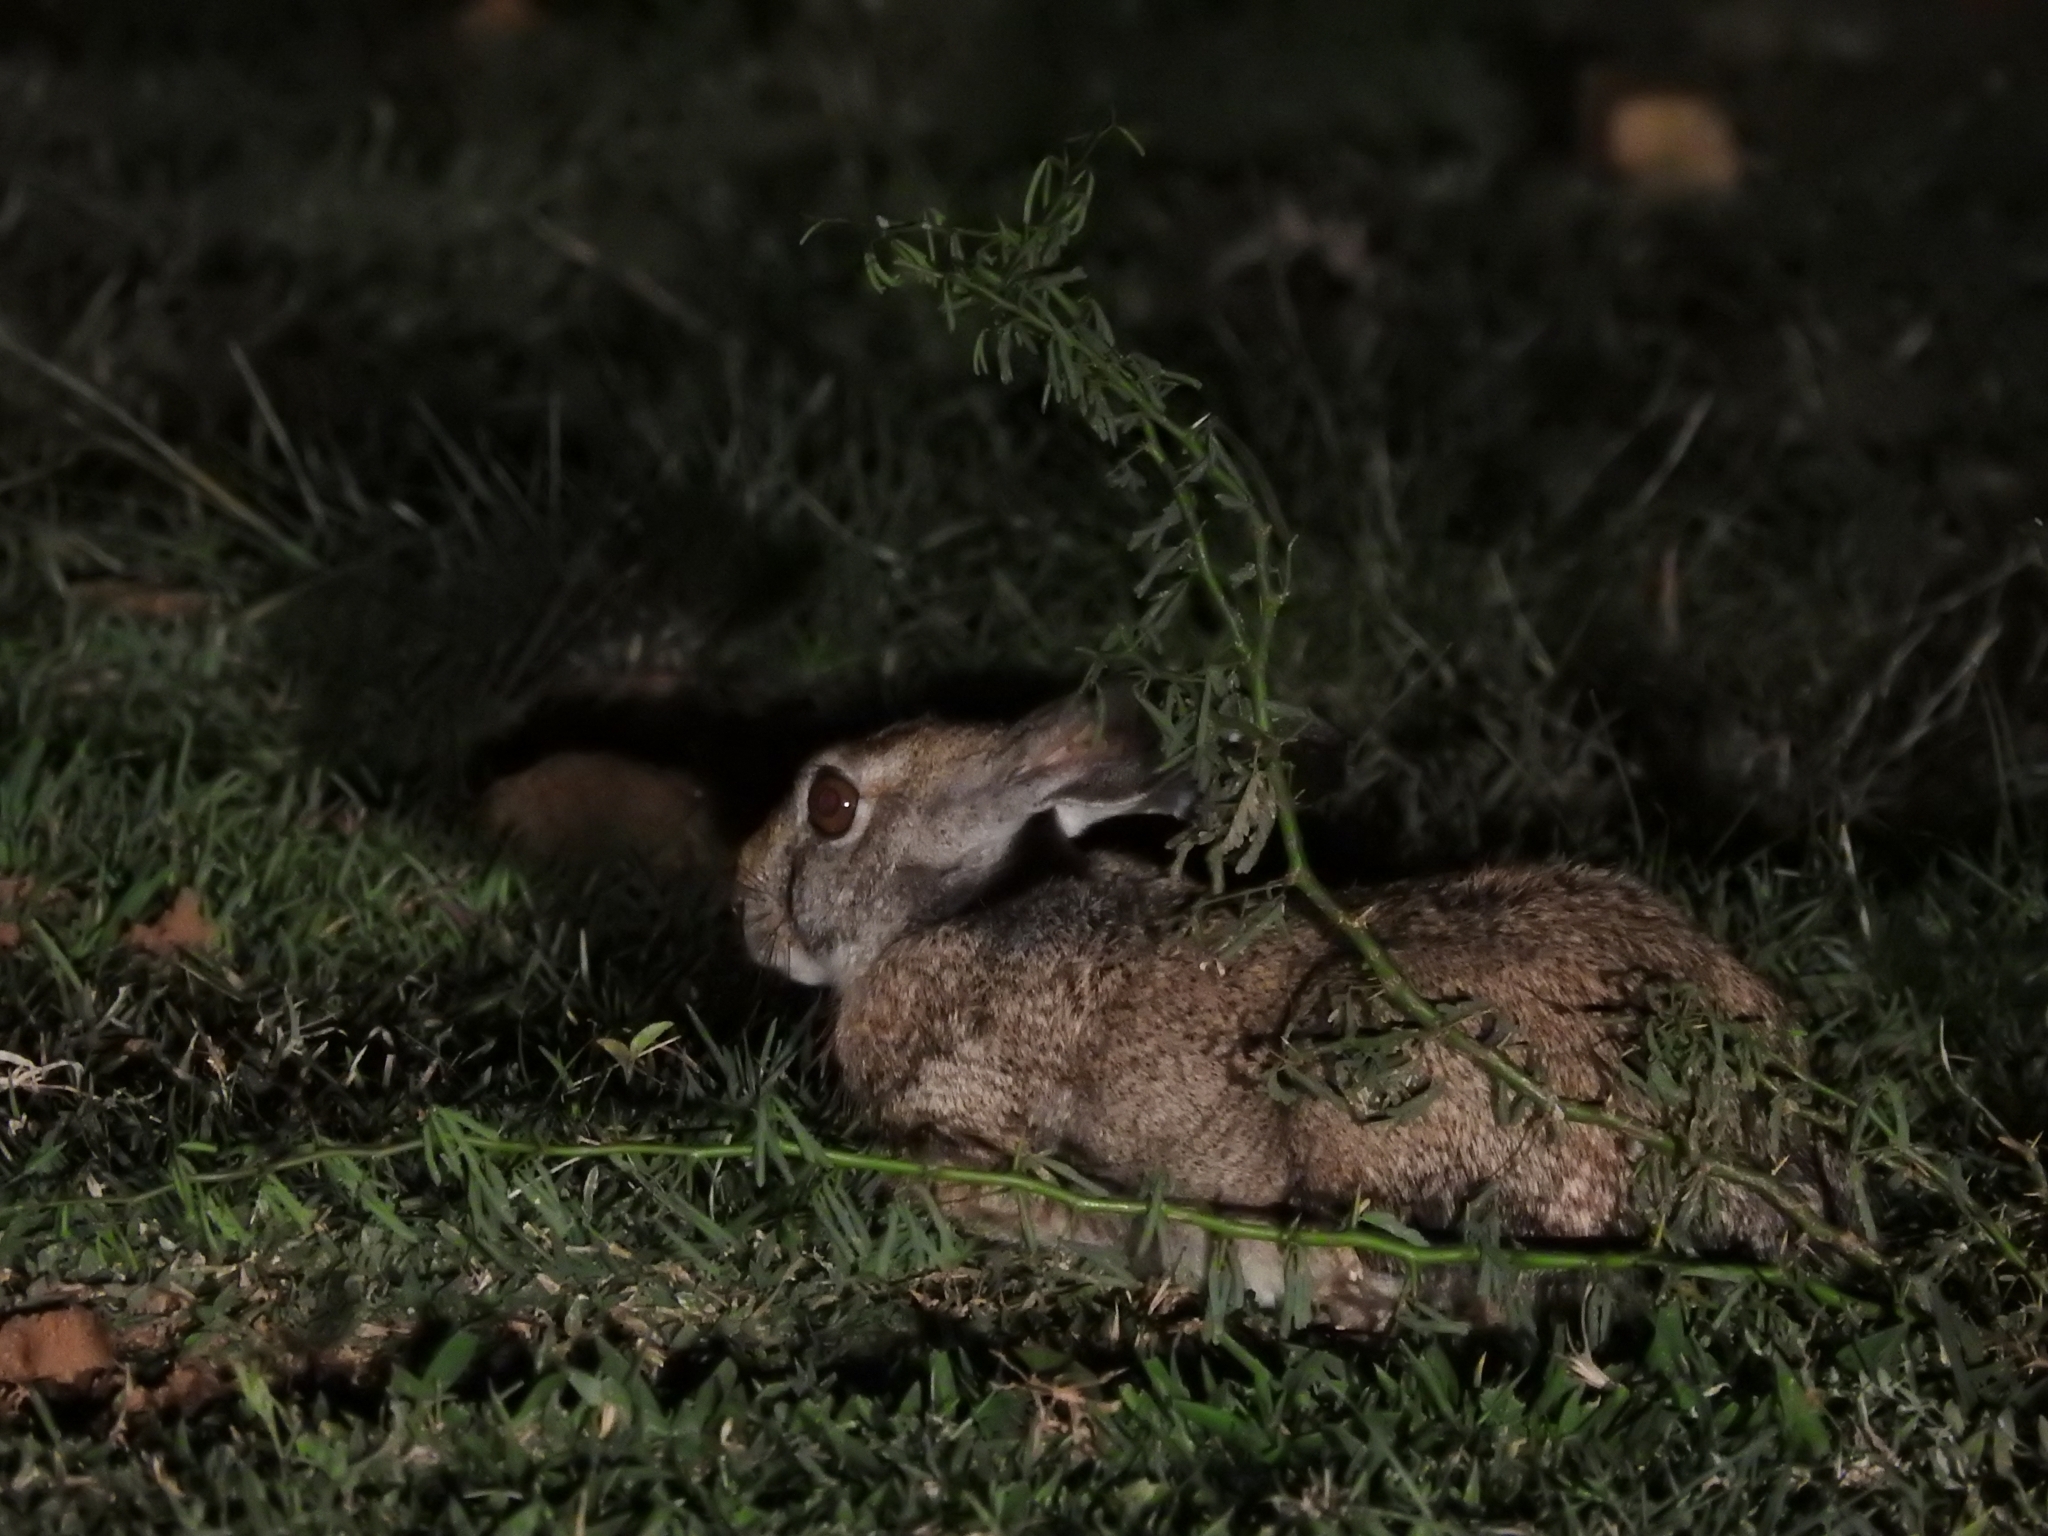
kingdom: Animalia
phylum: Chordata
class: Mammalia
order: Lagomorpha
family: Leporidae
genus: Lepus
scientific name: Lepus nigricollis
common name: Indian hare
